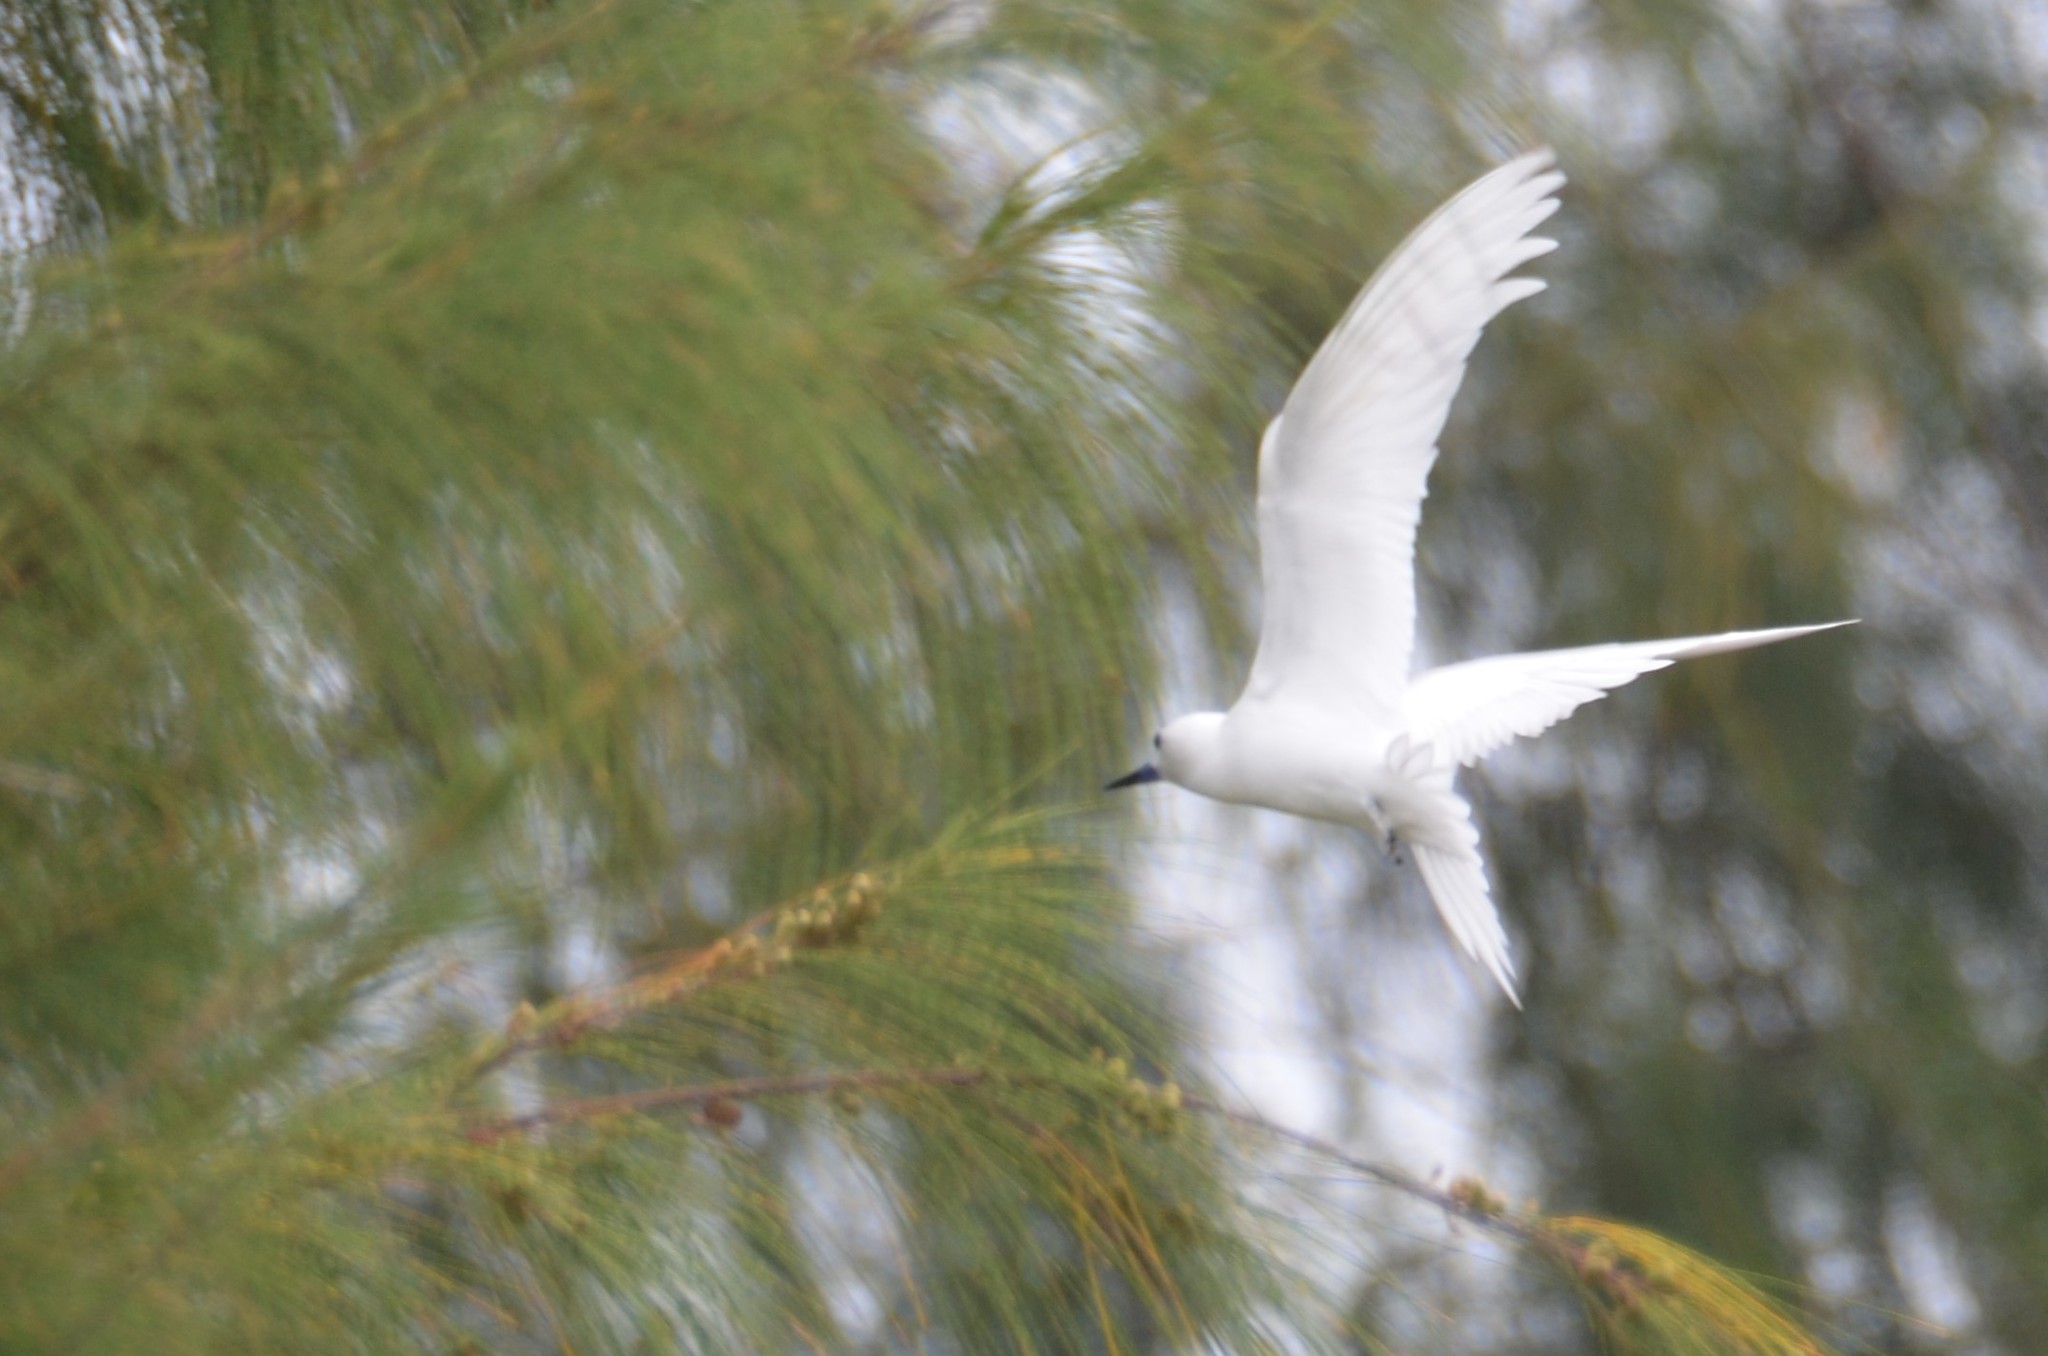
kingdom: Animalia
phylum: Chordata
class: Aves
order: Charadriiformes
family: Laridae
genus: Gygis
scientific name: Gygis alba
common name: White tern
